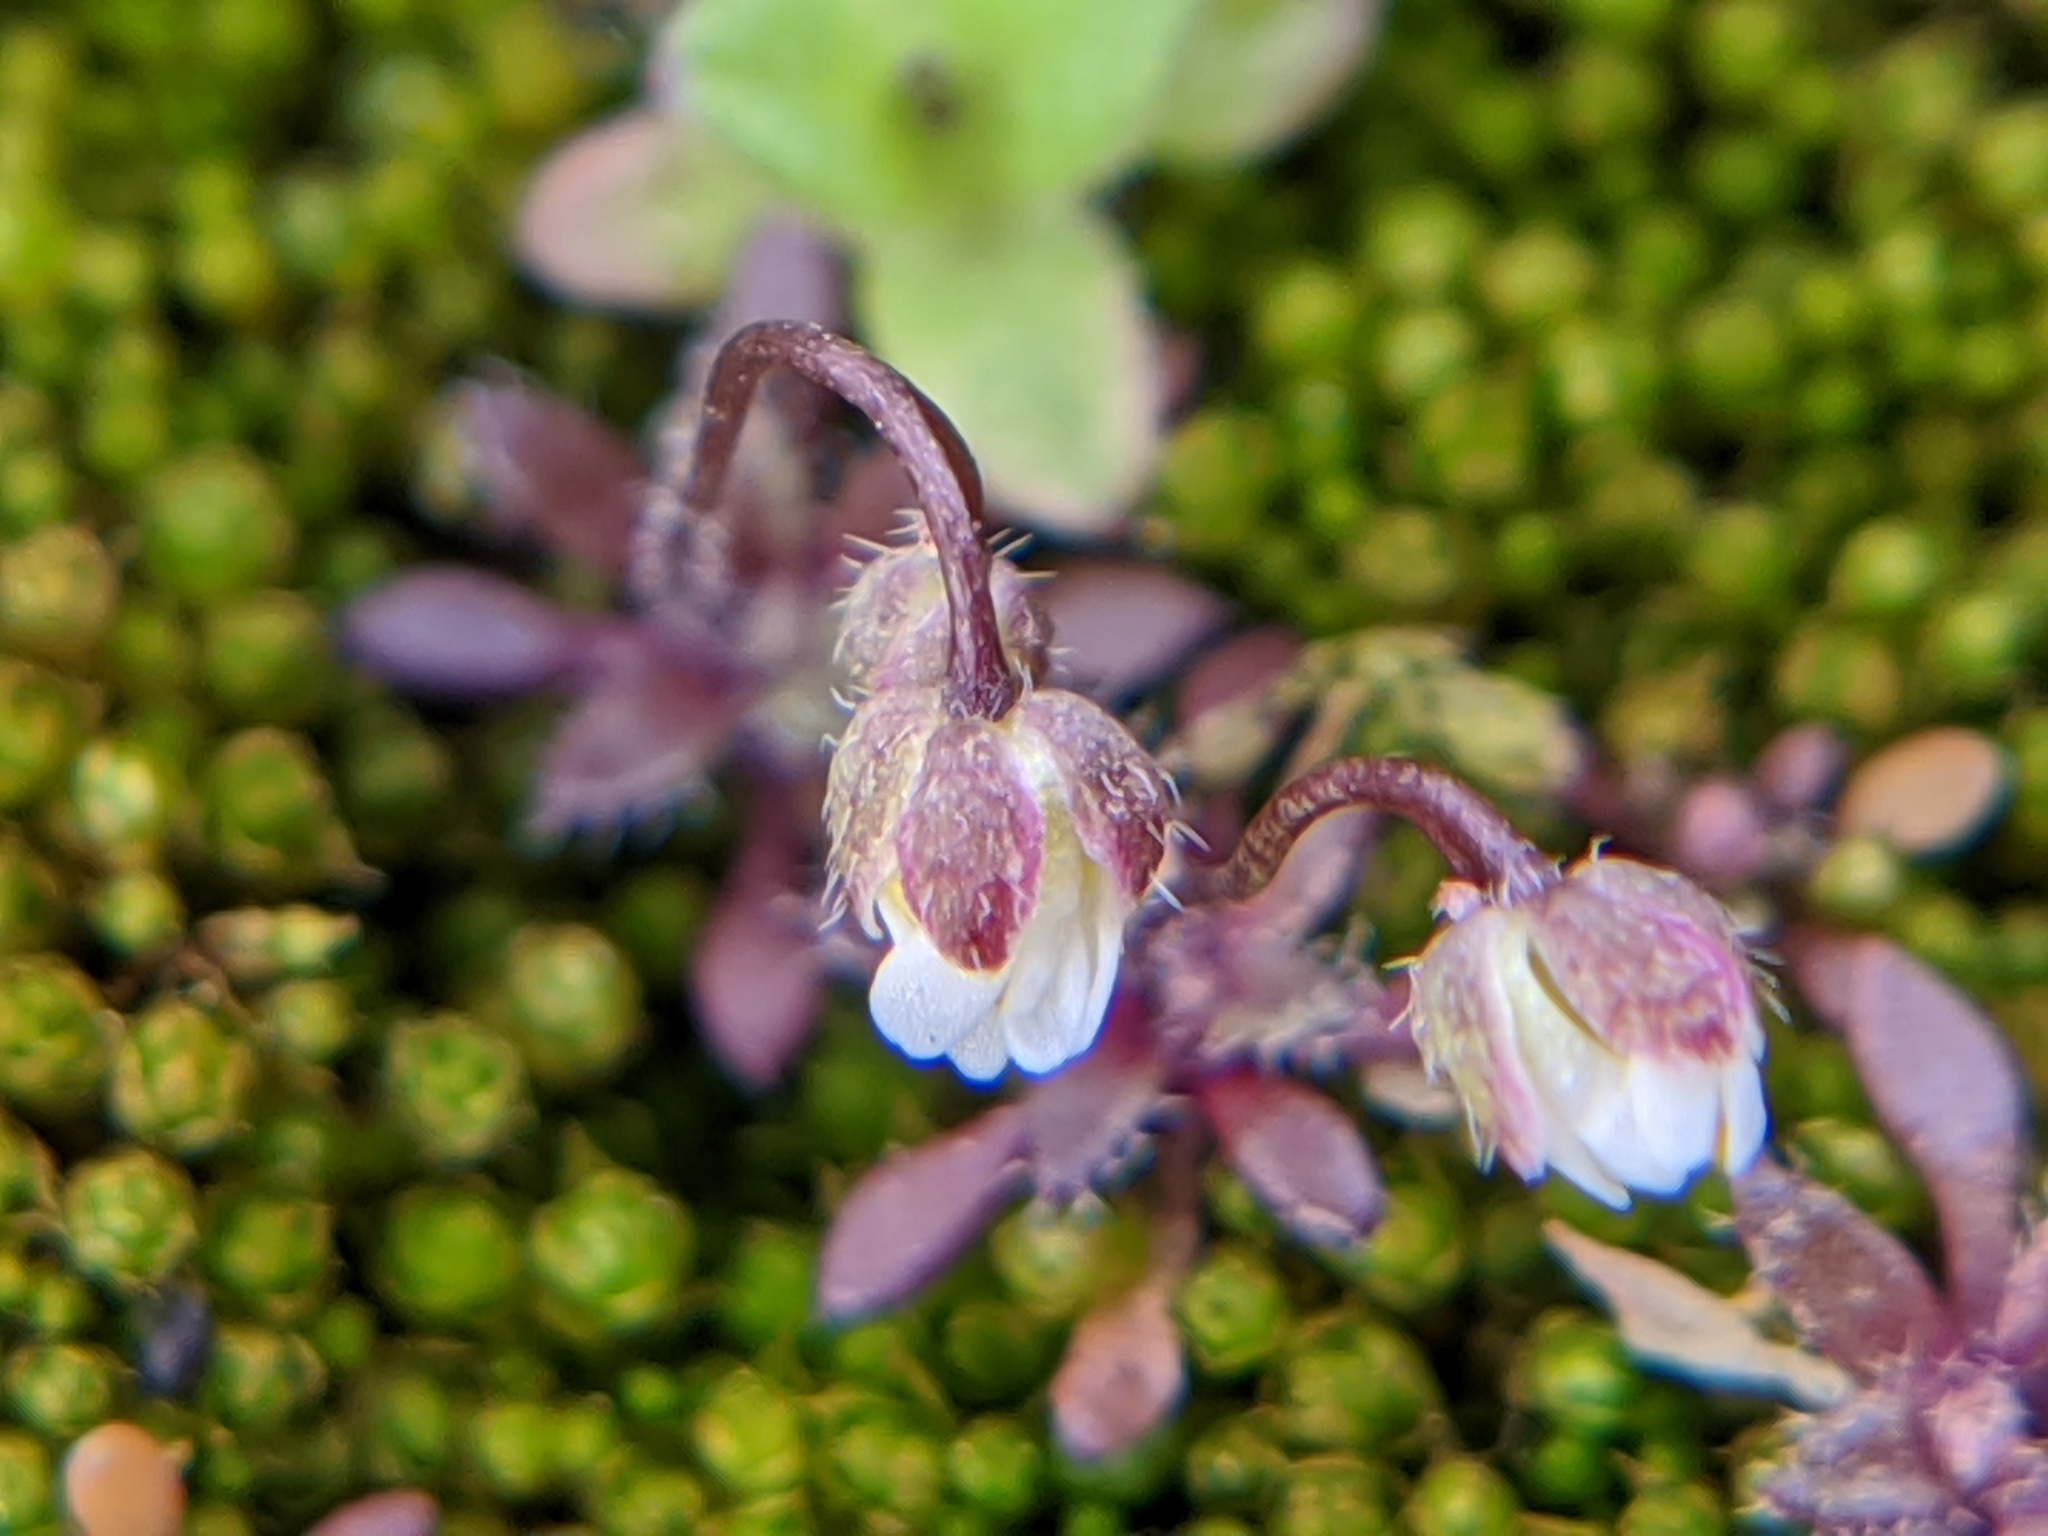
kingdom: Plantae
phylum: Tracheophyta
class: Magnoliopsida
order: Brassicales
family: Brassicaceae
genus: Draba
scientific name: Draba verna
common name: Spring draba
